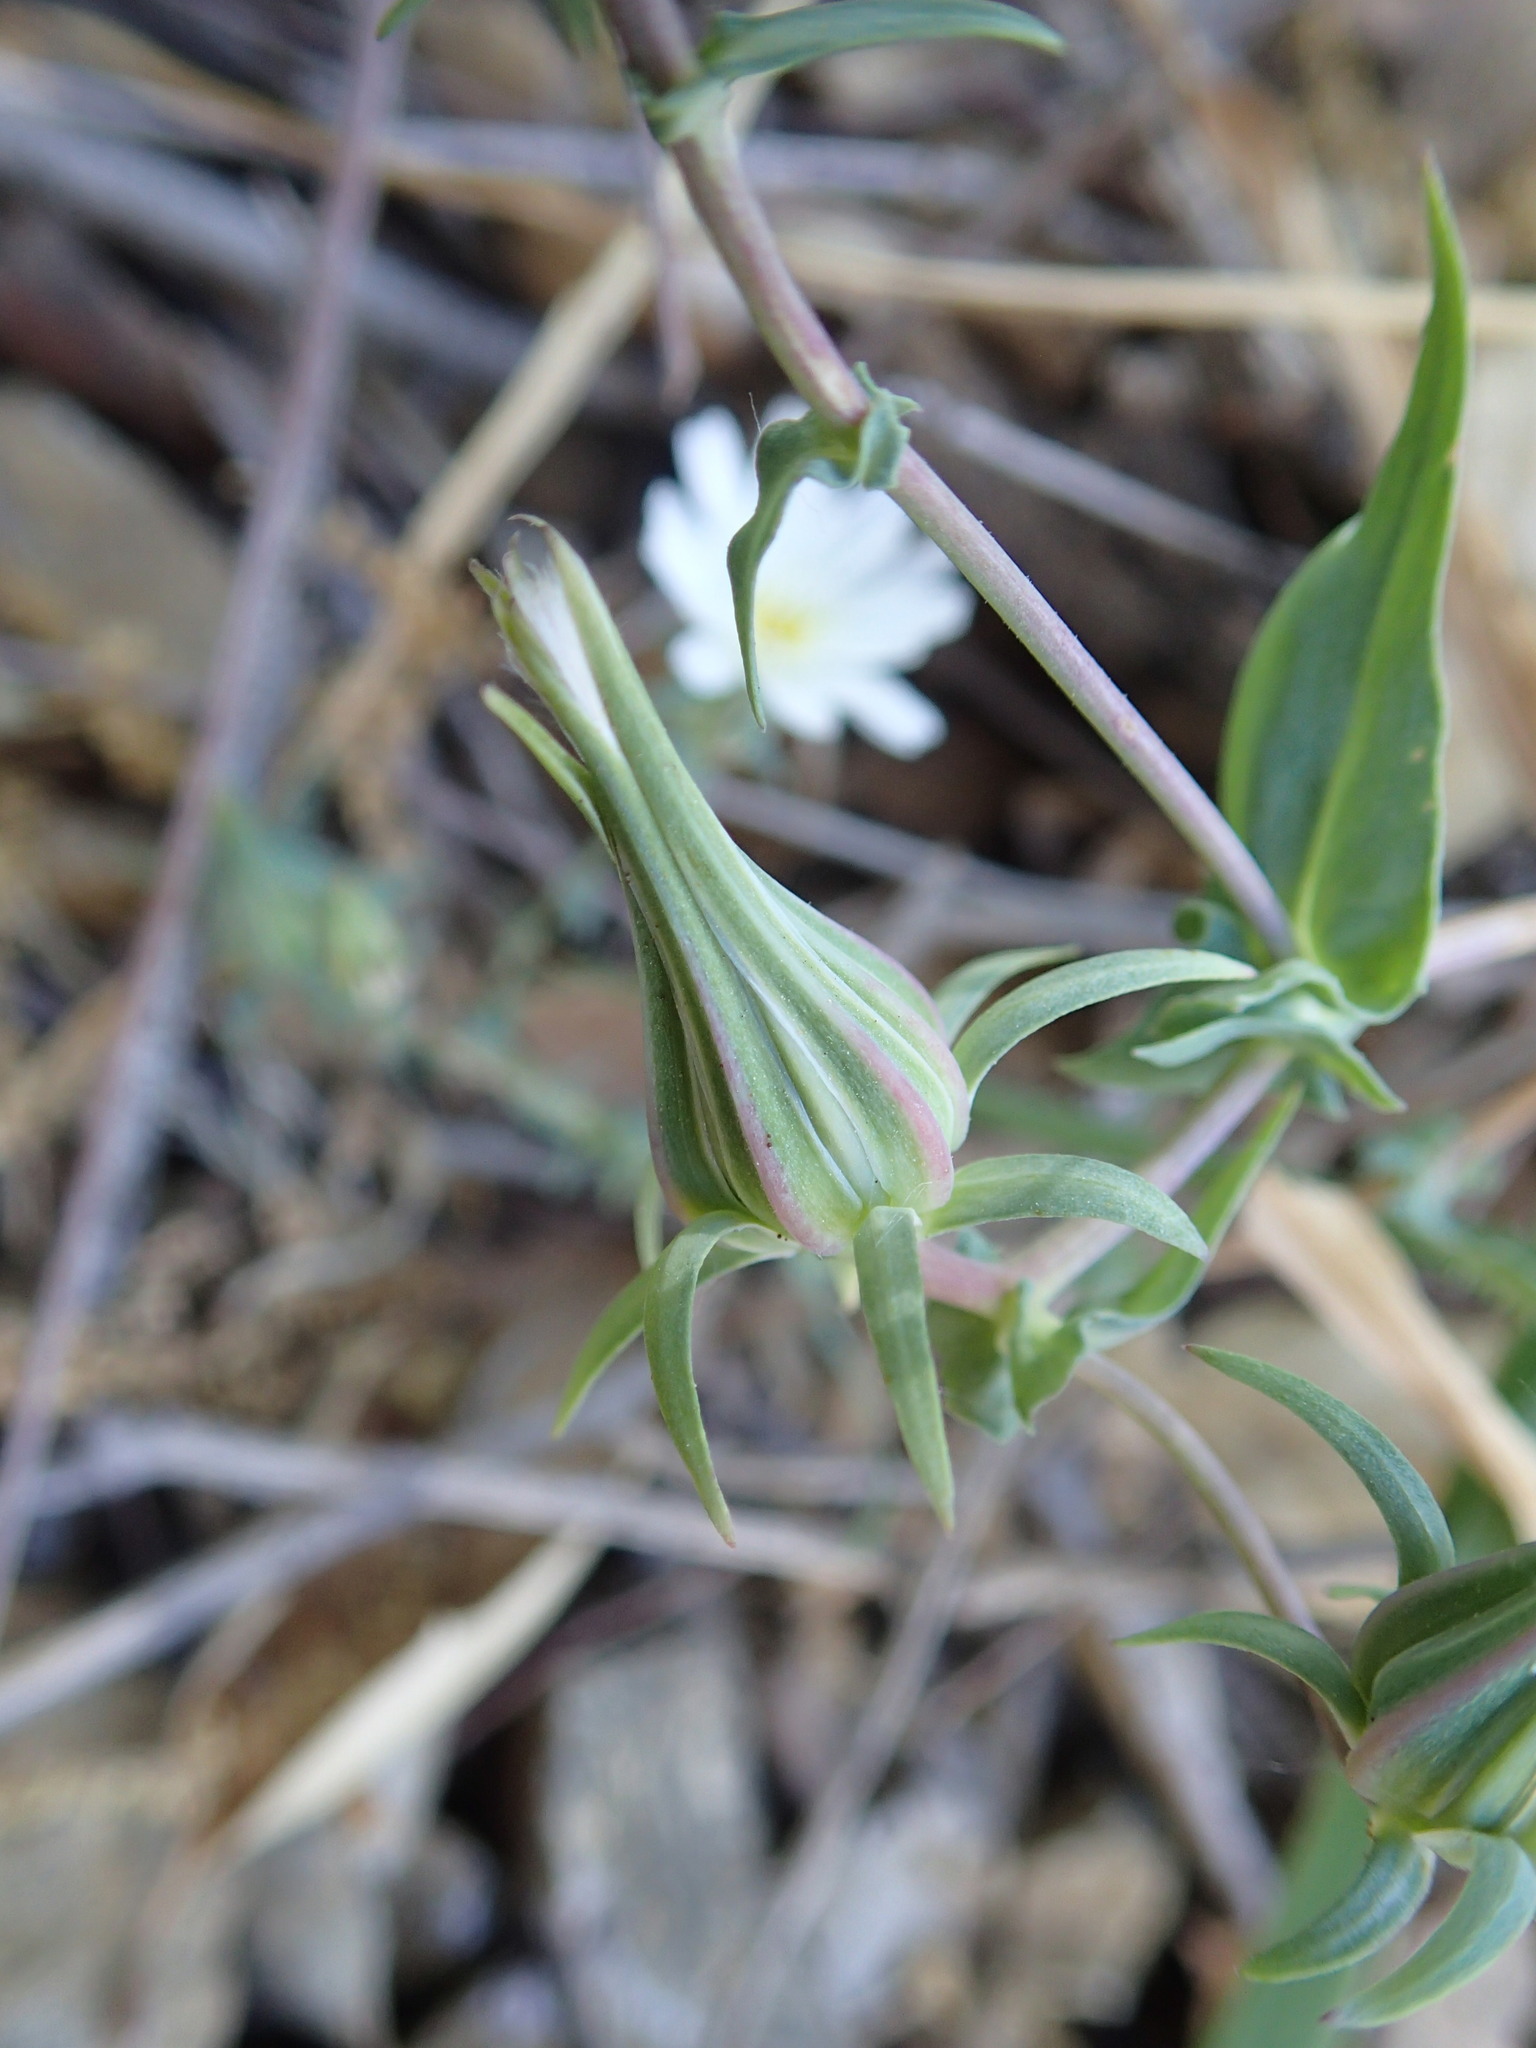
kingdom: Plantae
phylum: Tracheophyta
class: Magnoliopsida
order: Asterales
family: Asteraceae
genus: Rafinesquia
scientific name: Rafinesquia californica
